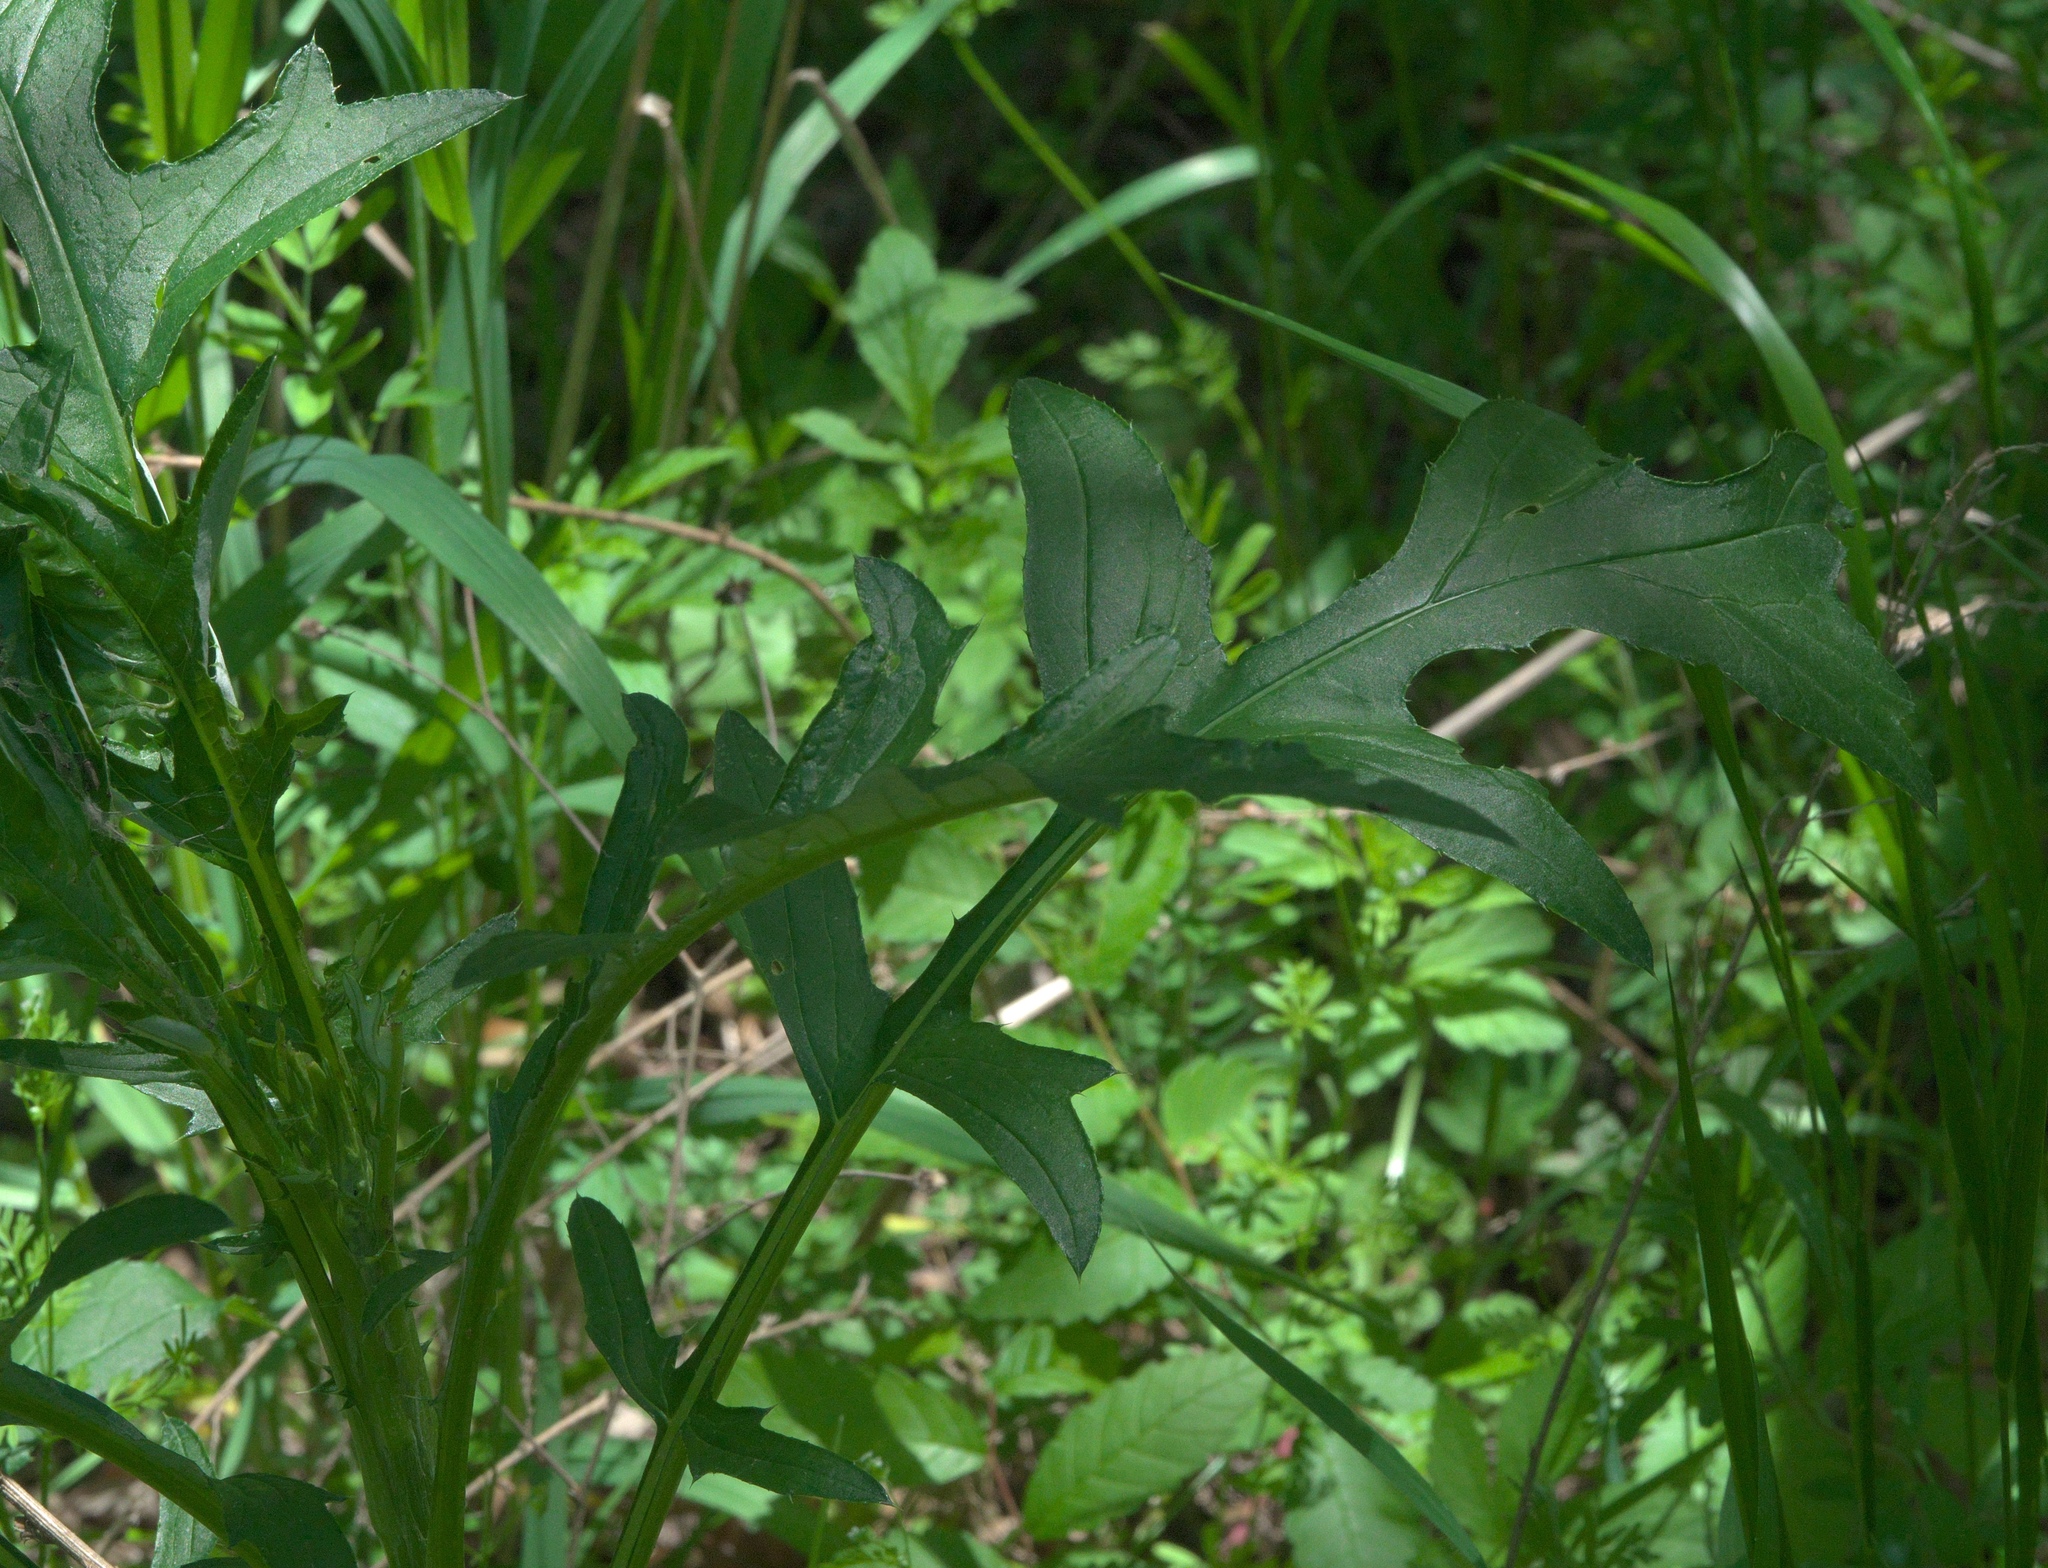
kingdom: Plantae
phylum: Tracheophyta
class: Magnoliopsida
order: Asterales
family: Asteraceae
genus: Lactuca
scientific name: Lactuca floridana
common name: Woodland lettuce
